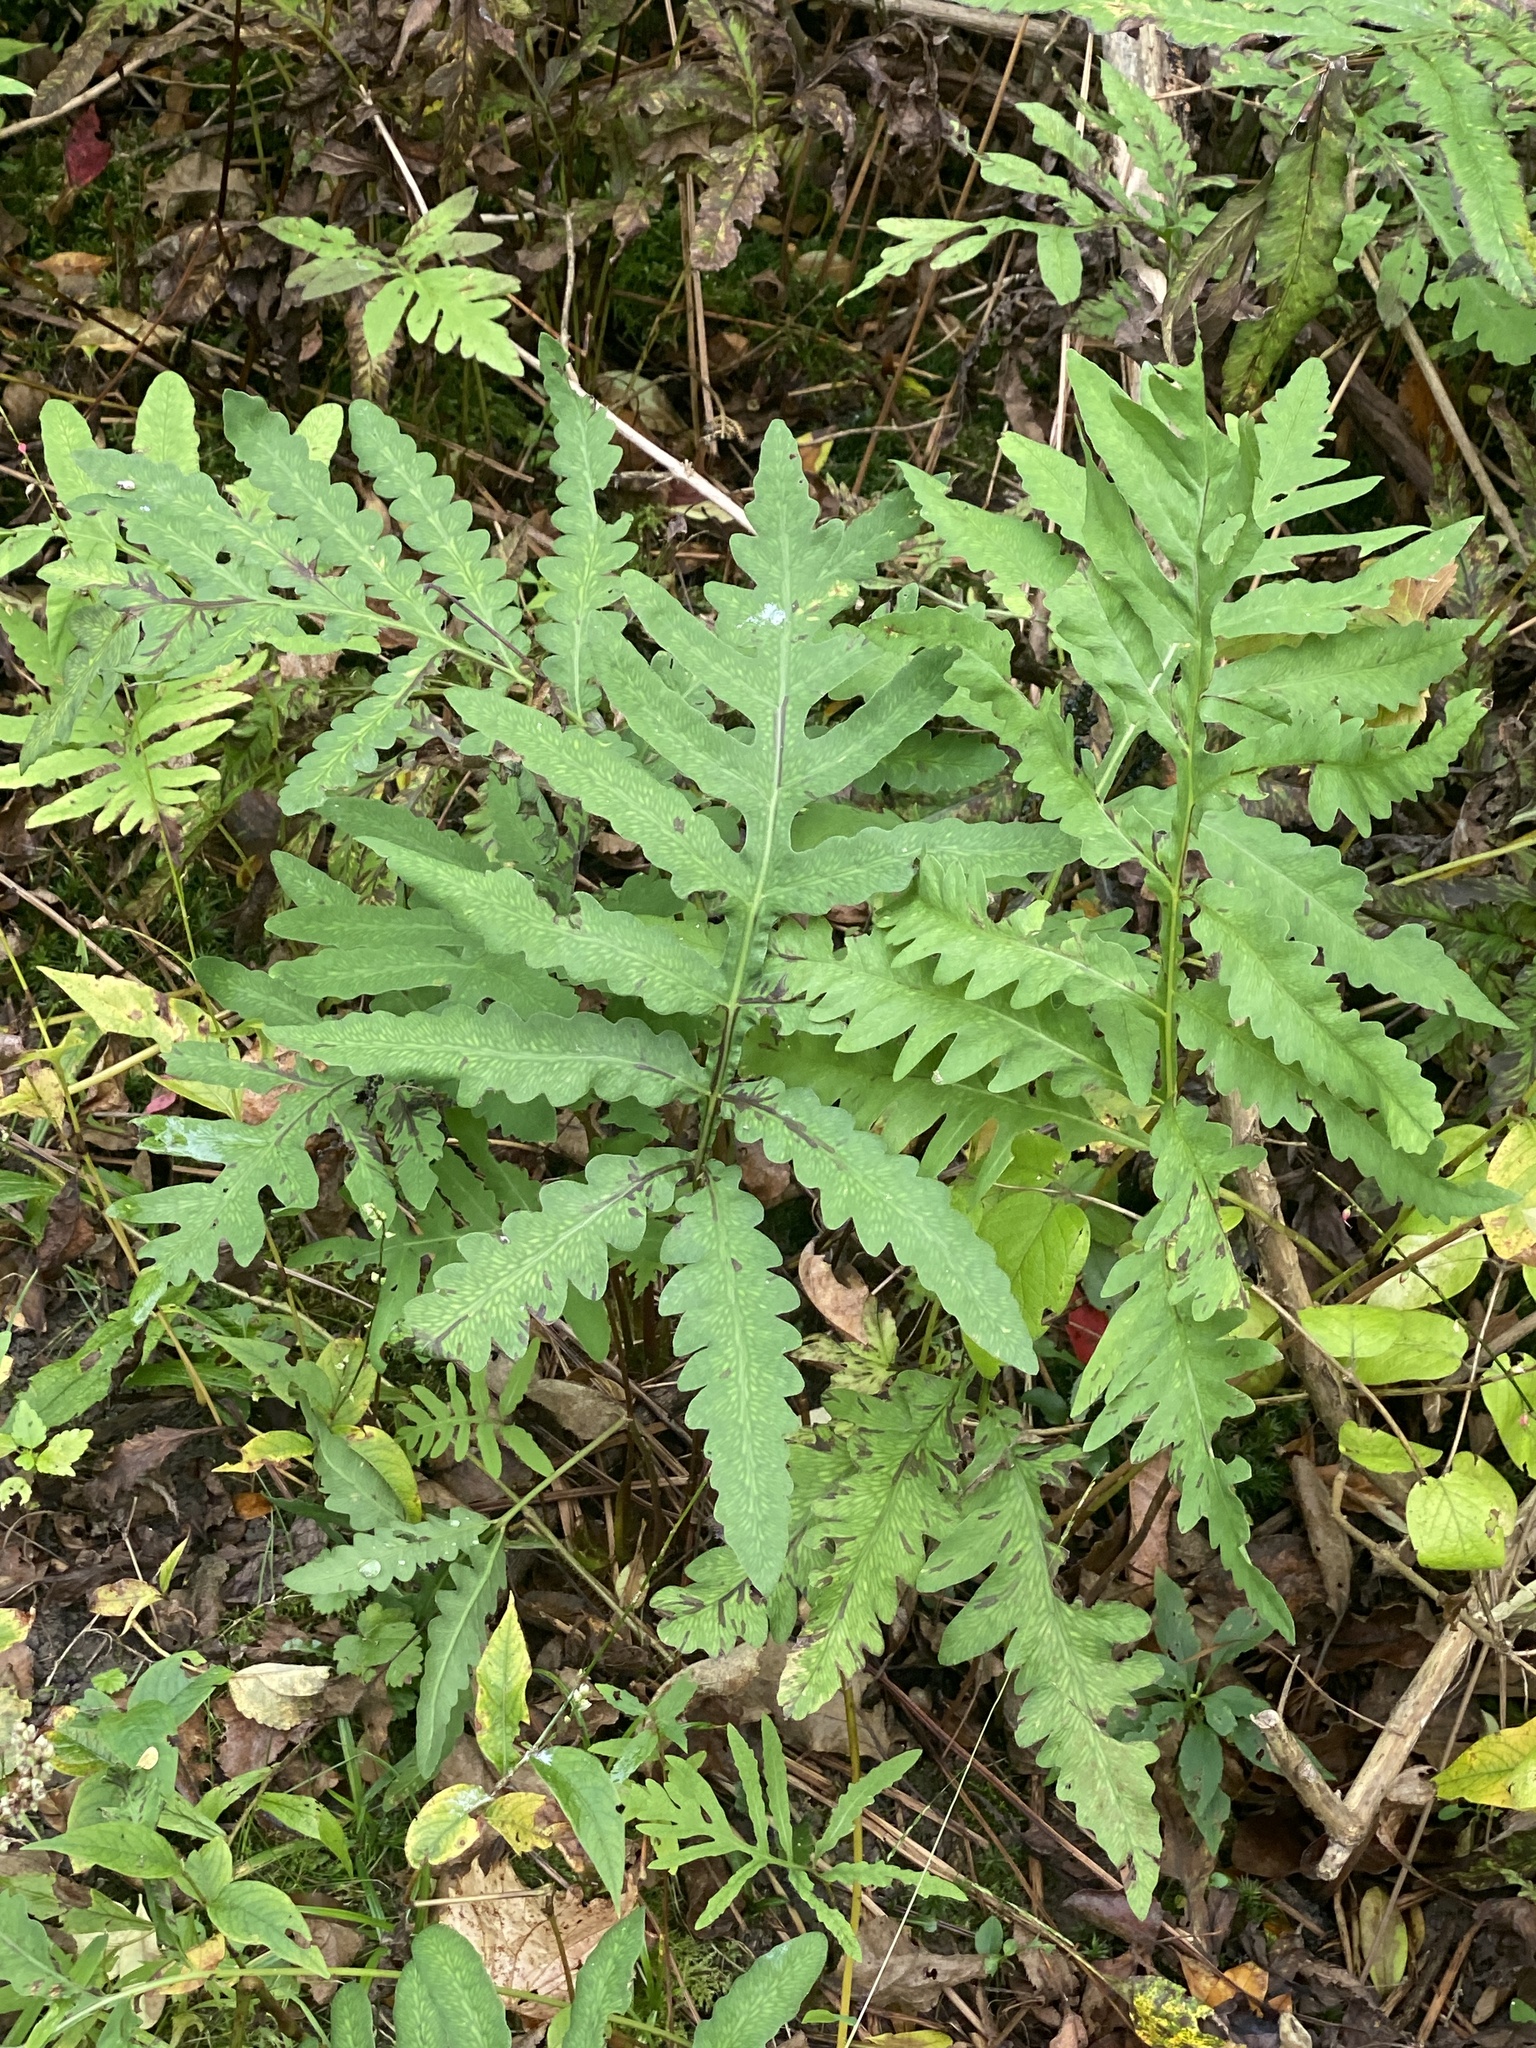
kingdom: Plantae
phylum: Tracheophyta
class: Polypodiopsida
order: Polypodiales
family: Onocleaceae
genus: Onoclea
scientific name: Onoclea sensibilis
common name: Sensitive fern
